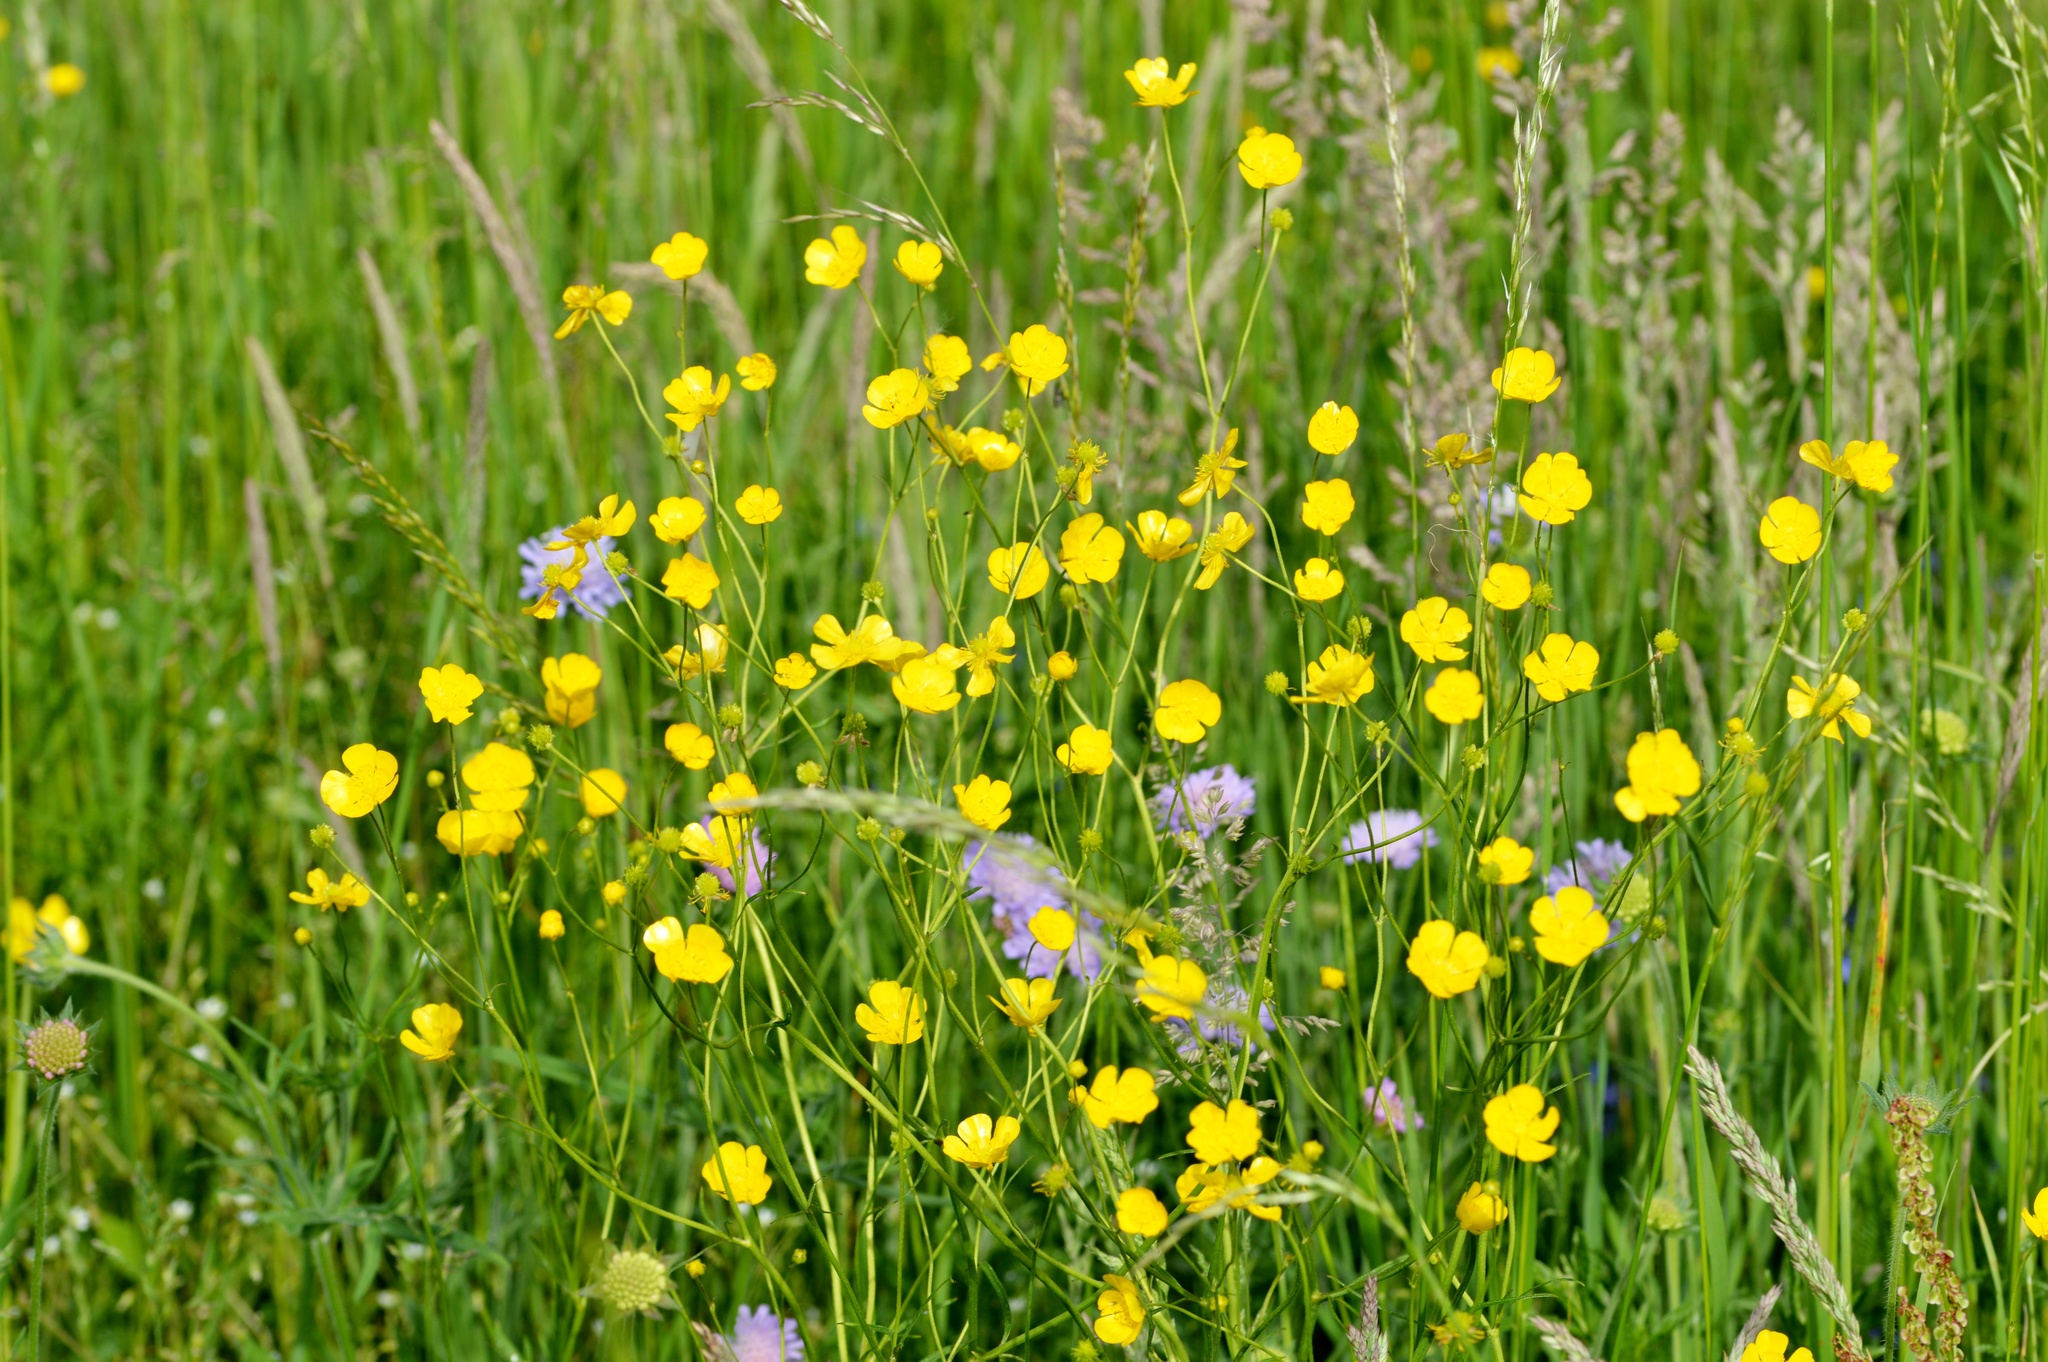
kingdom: Plantae
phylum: Tracheophyta
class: Magnoliopsida
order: Ranunculales
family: Ranunculaceae
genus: Ranunculus
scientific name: Ranunculus acris
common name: Meadow buttercup
